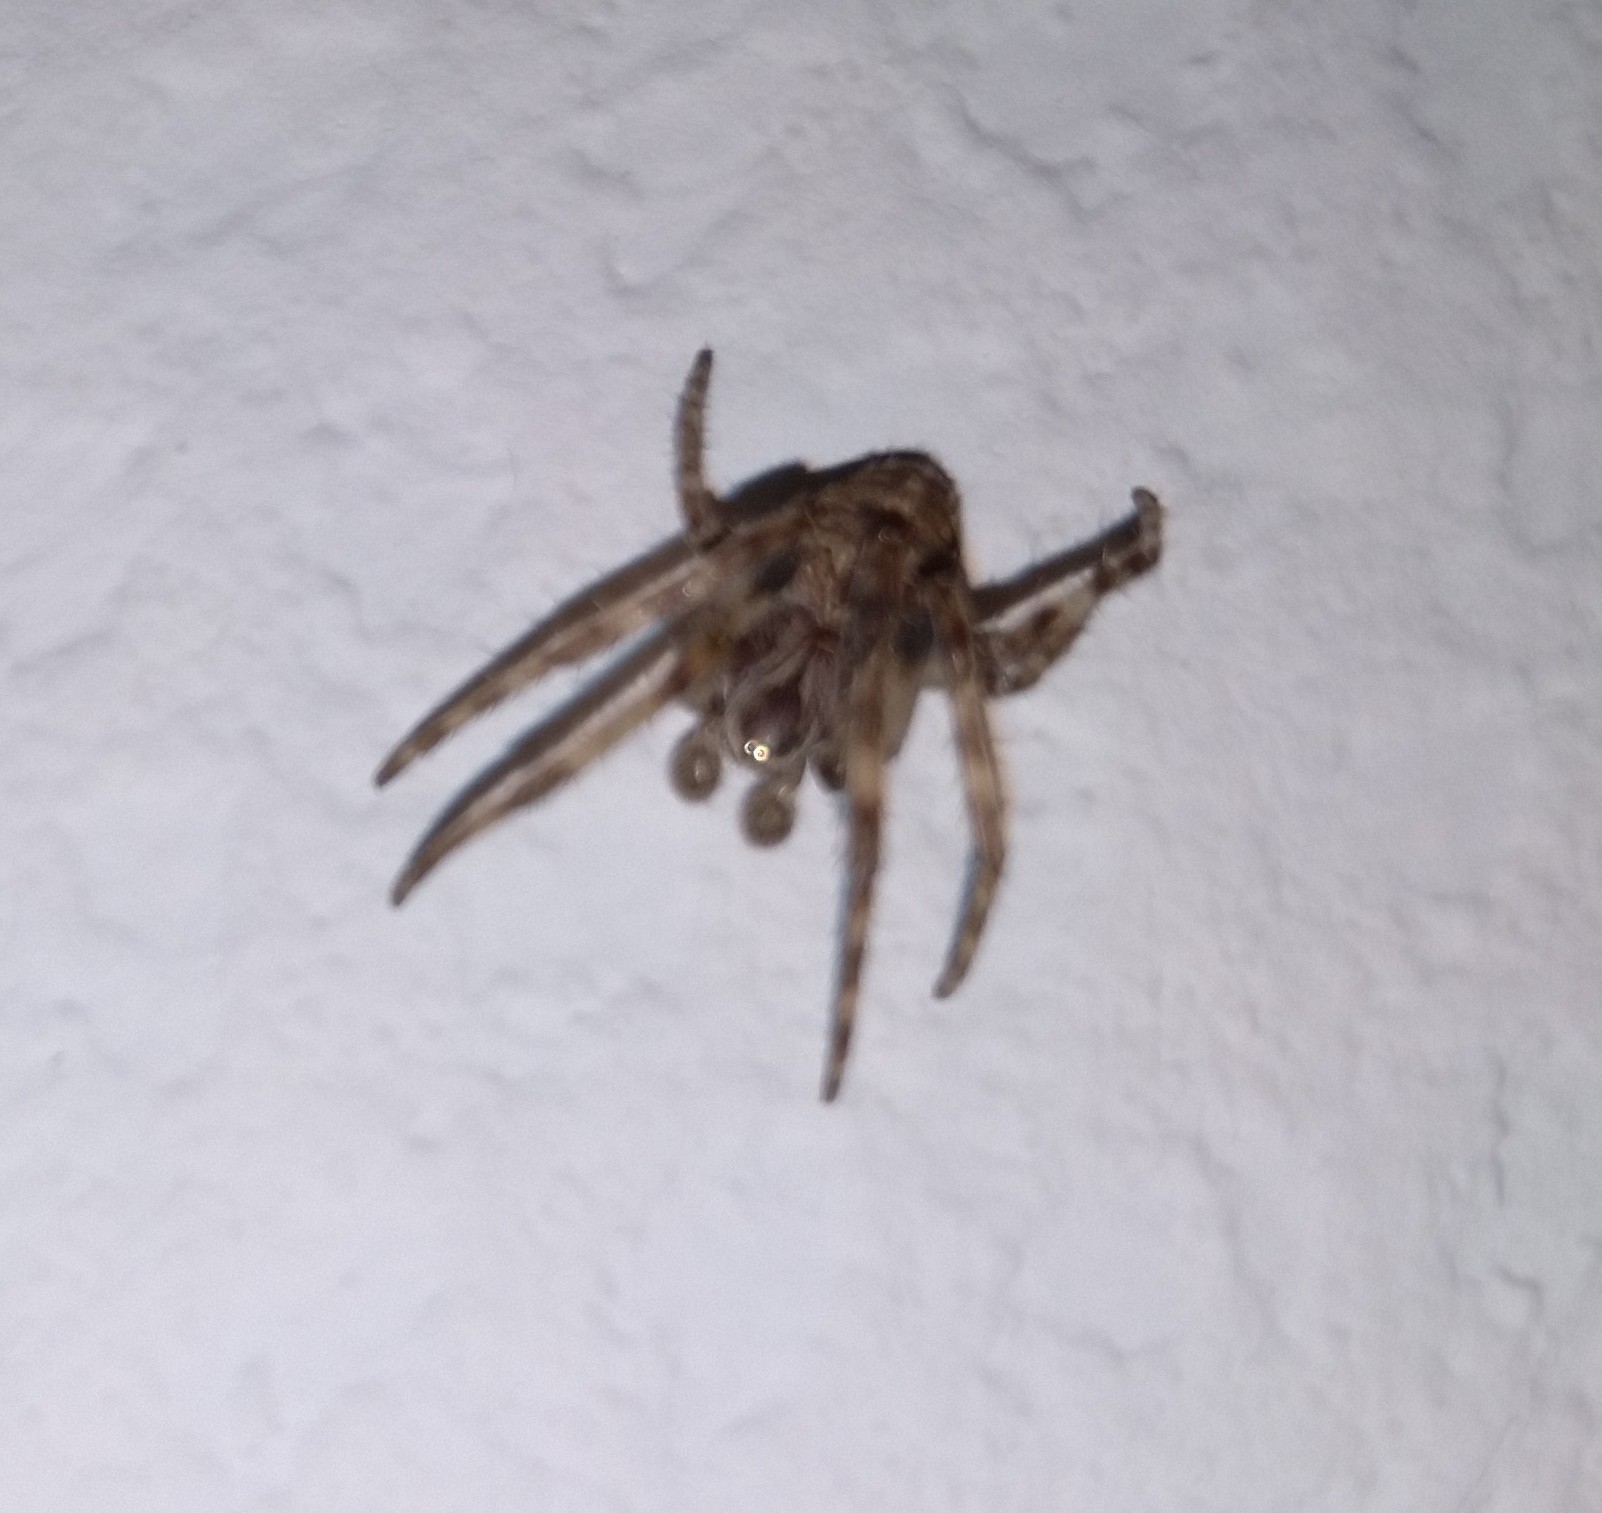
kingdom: Animalia
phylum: Arthropoda
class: Arachnida
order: Araneae
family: Araneidae
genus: Larinioides
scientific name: Larinioides sclopetarius
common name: Bridge orbweaver
